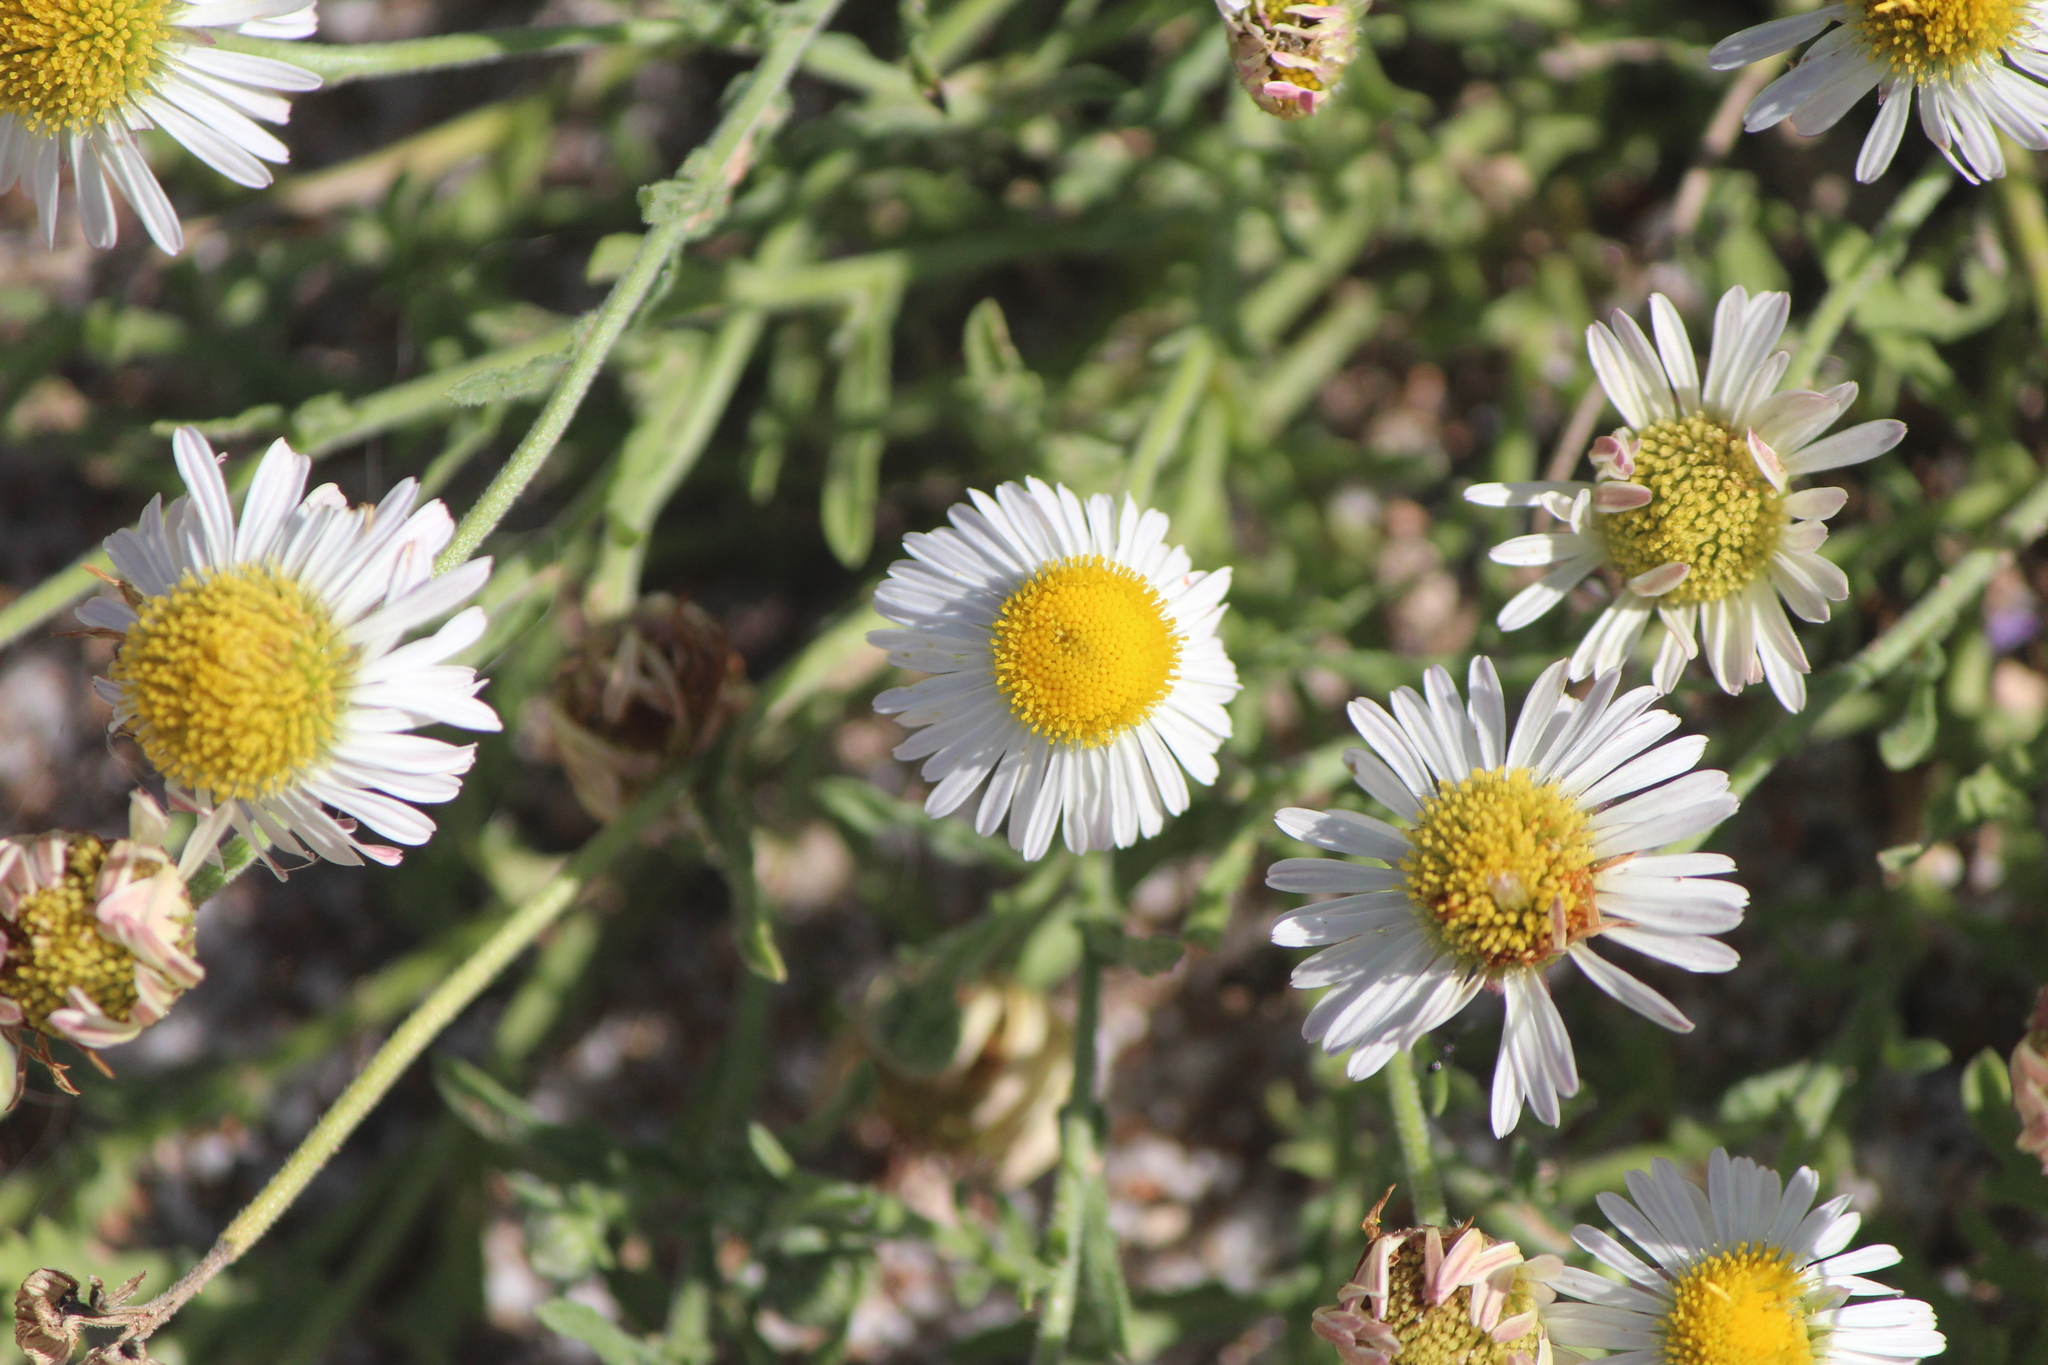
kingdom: Plantae
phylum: Tracheophyta
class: Magnoliopsida
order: Asterales
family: Asteraceae
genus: Aphanostephus
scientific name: Aphanostephus ramosissimus
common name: Plains lazy daisy
